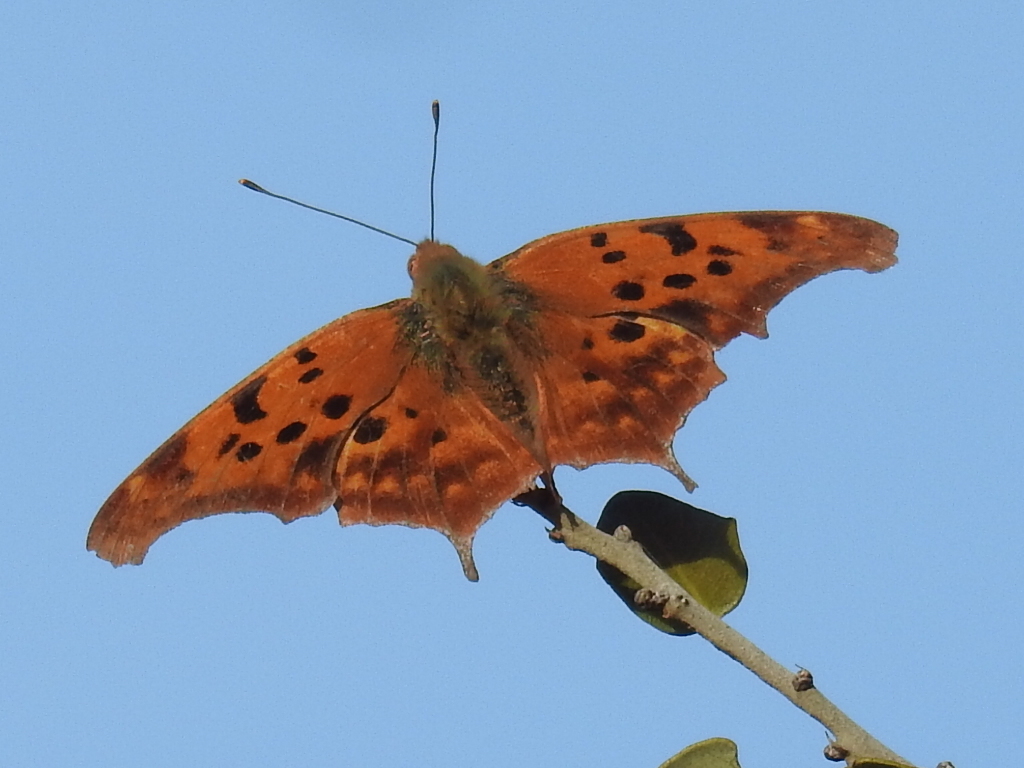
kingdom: Animalia
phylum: Arthropoda
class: Insecta
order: Lepidoptera
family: Nymphalidae
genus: Polygonia
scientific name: Polygonia interrogationis
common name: Question mark
